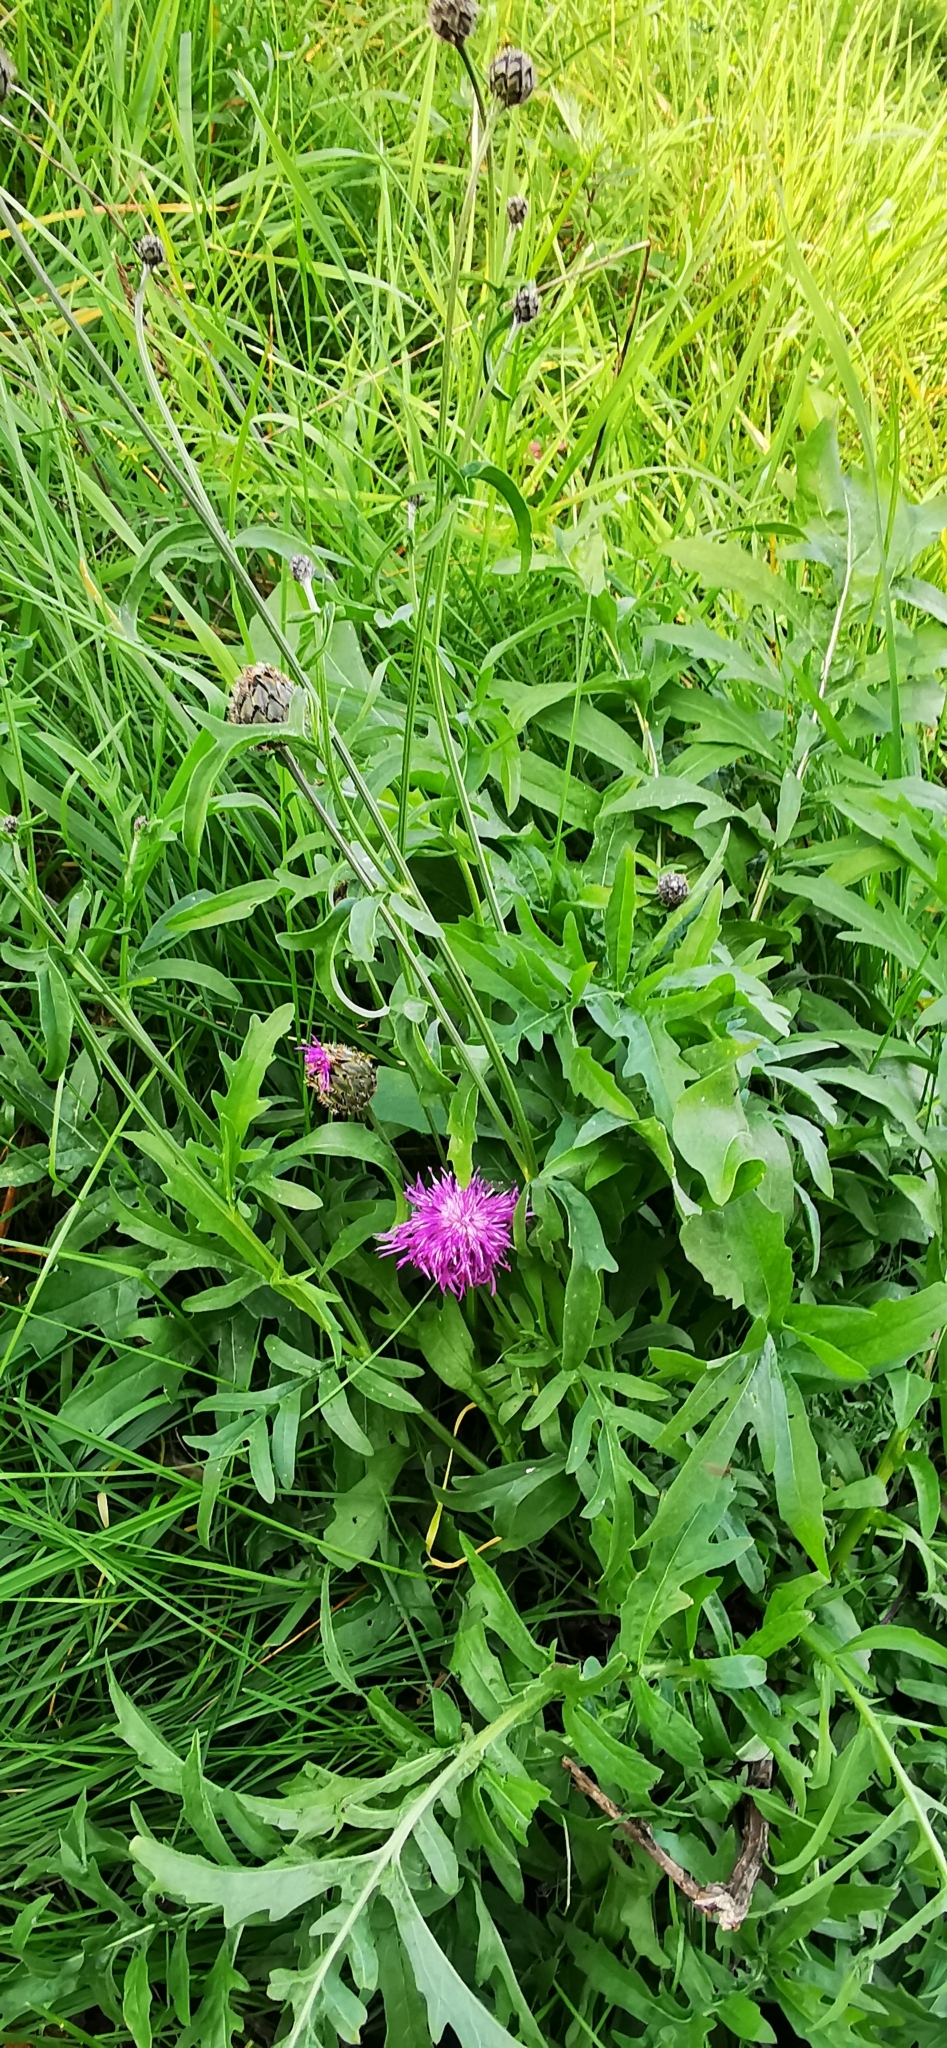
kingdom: Plantae
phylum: Tracheophyta
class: Magnoliopsida
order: Asterales
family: Asteraceae
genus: Centaurea
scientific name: Centaurea scabiosa
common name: Greater knapweed
